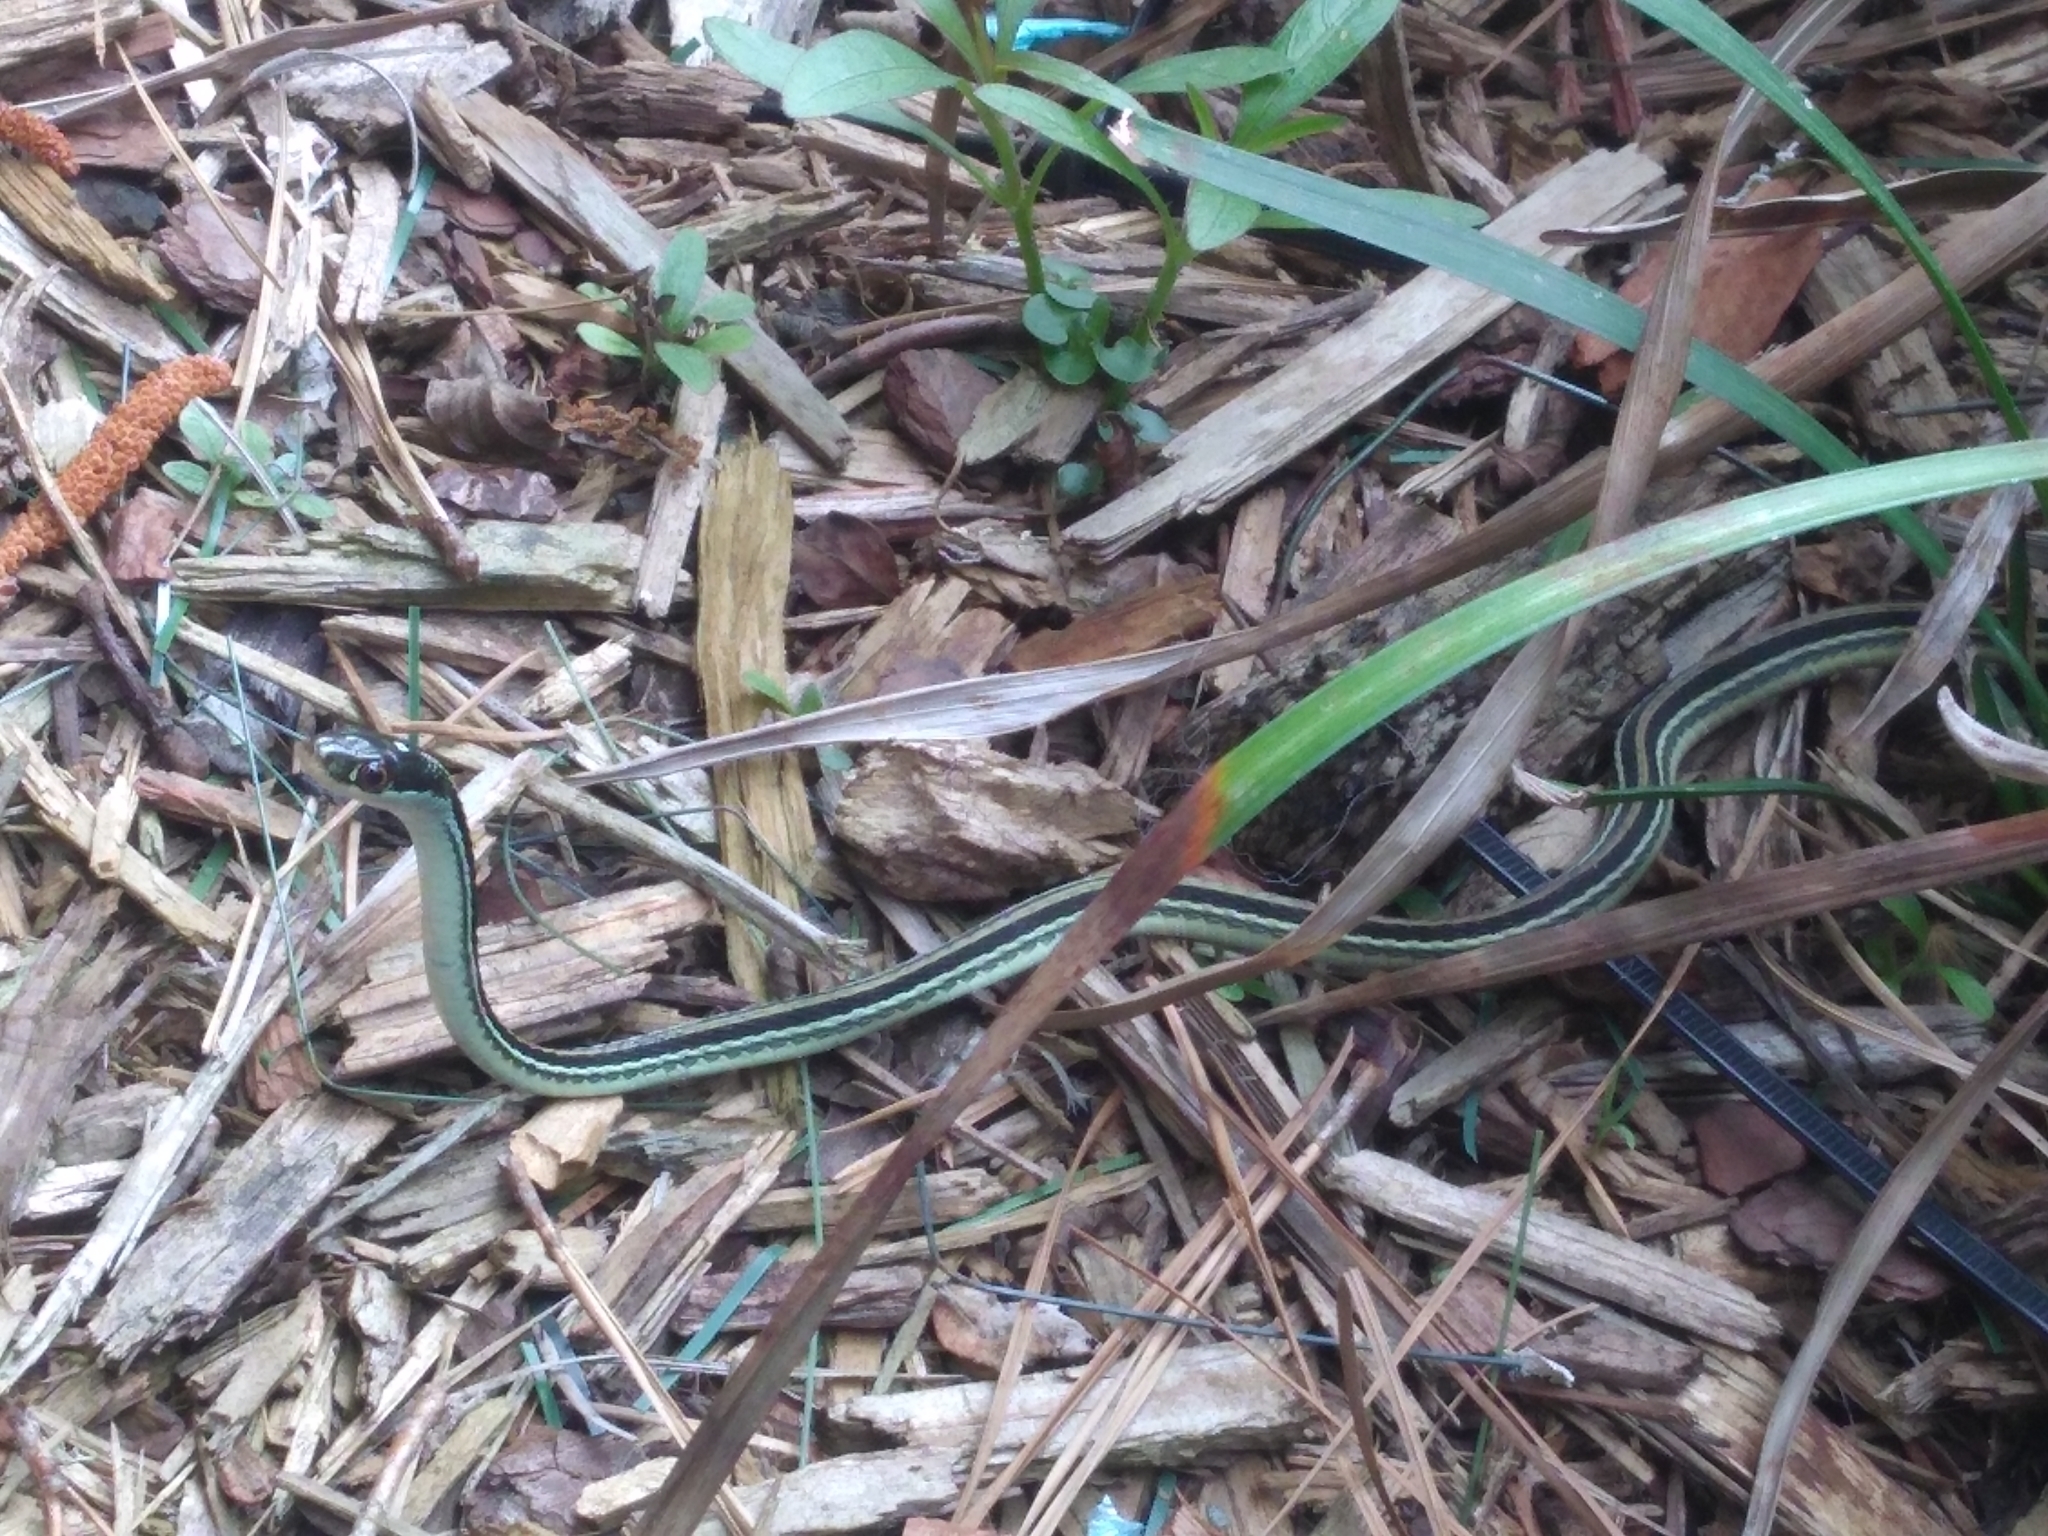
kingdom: Animalia
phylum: Chordata
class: Squamata
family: Colubridae
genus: Thamnophis
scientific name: Thamnophis proximus
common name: Western ribbon snake
